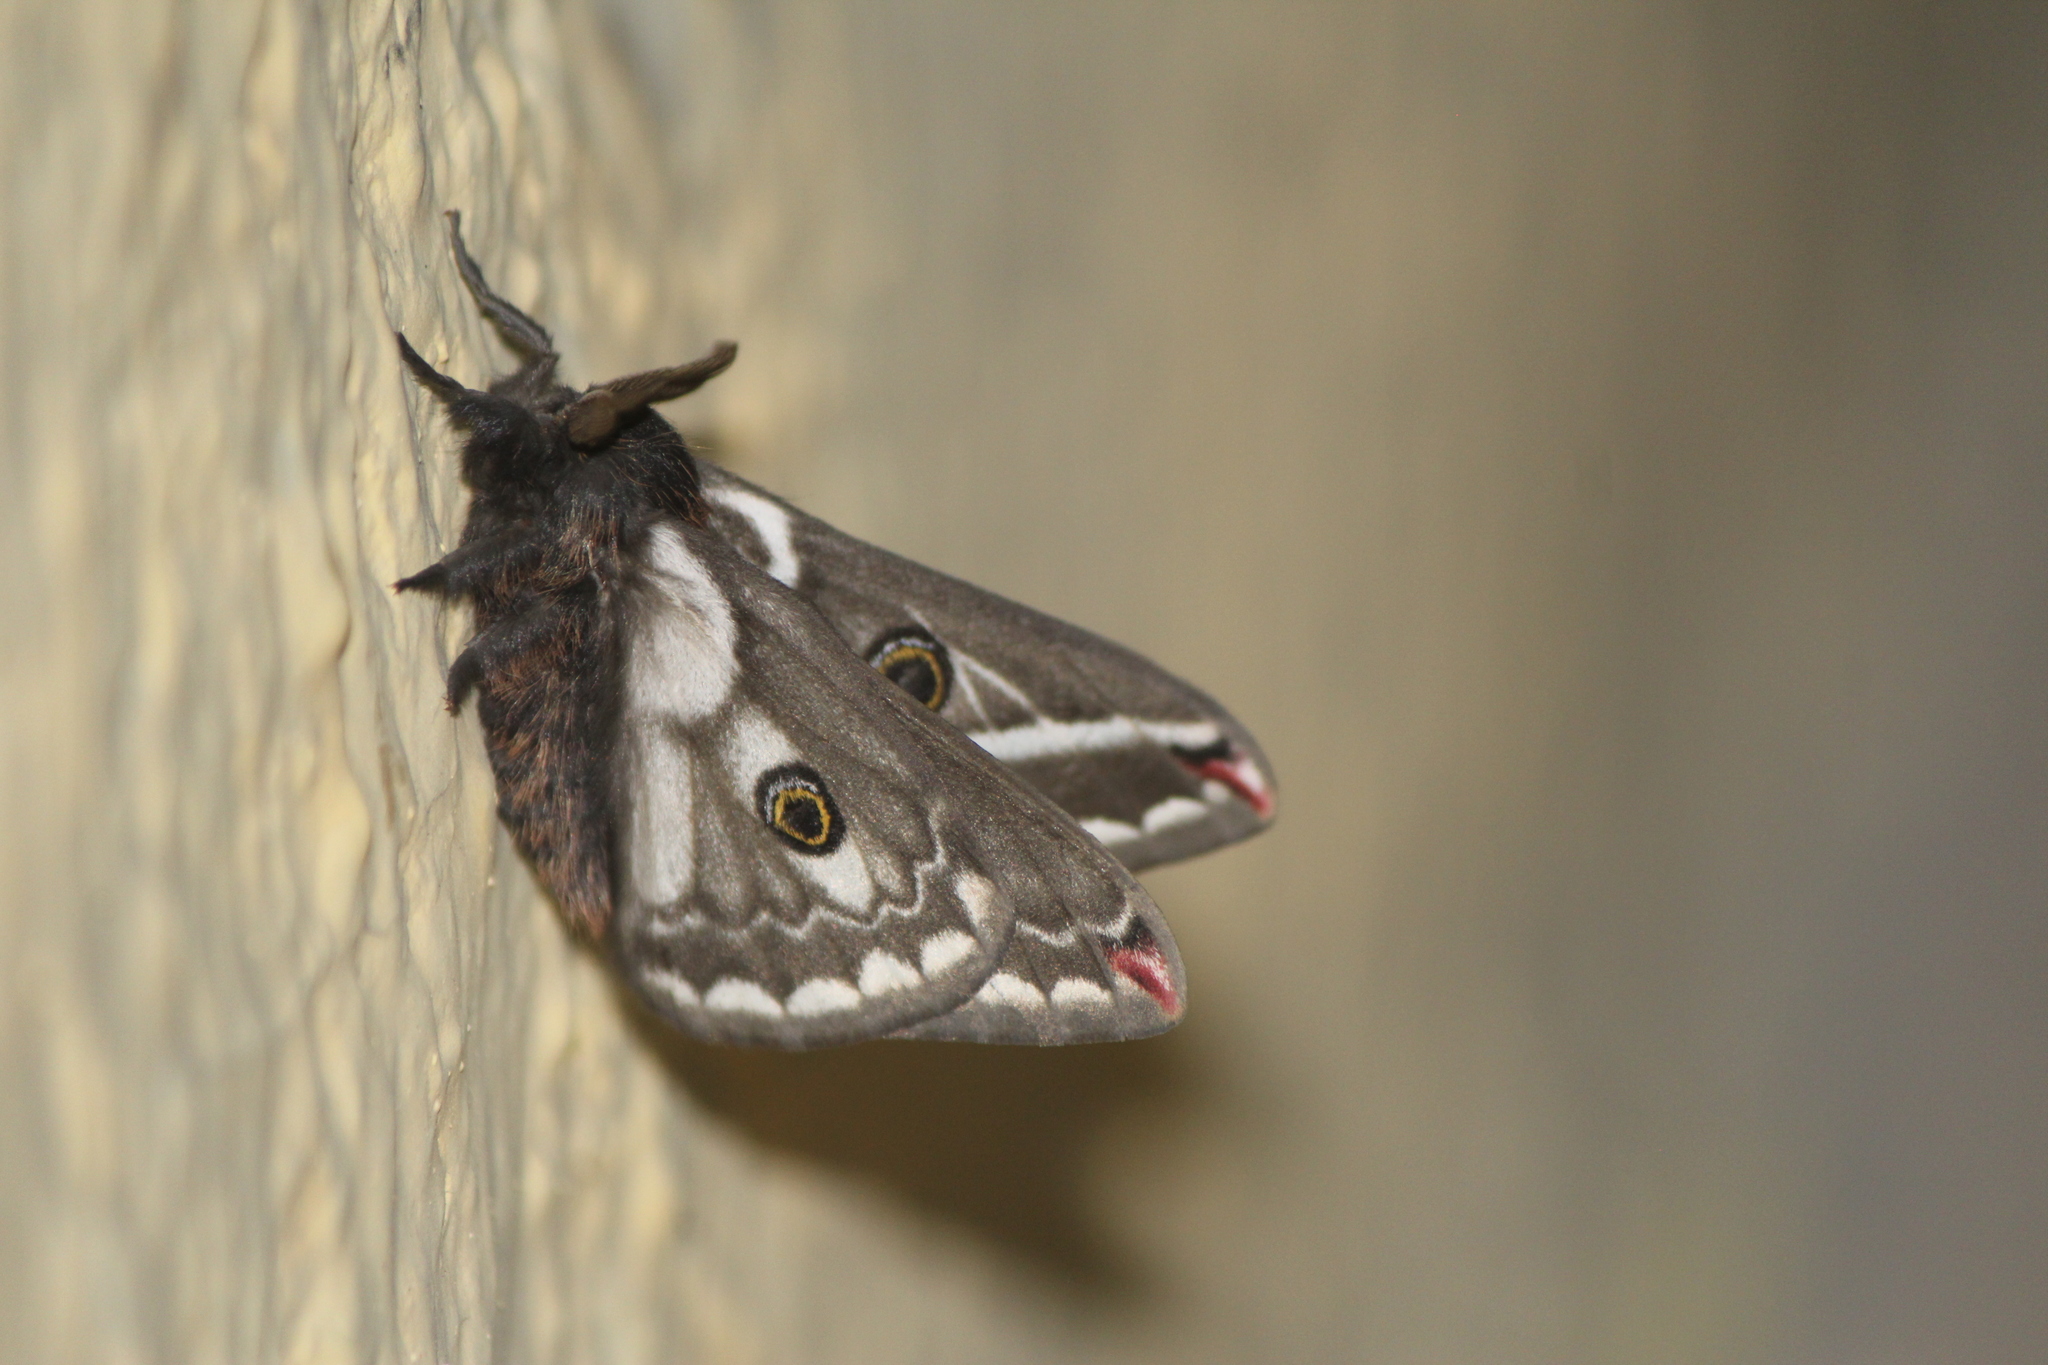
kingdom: Animalia
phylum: Arthropoda
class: Insecta
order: Lepidoptera
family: Saturniidae
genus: Agapema
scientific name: Agapema
